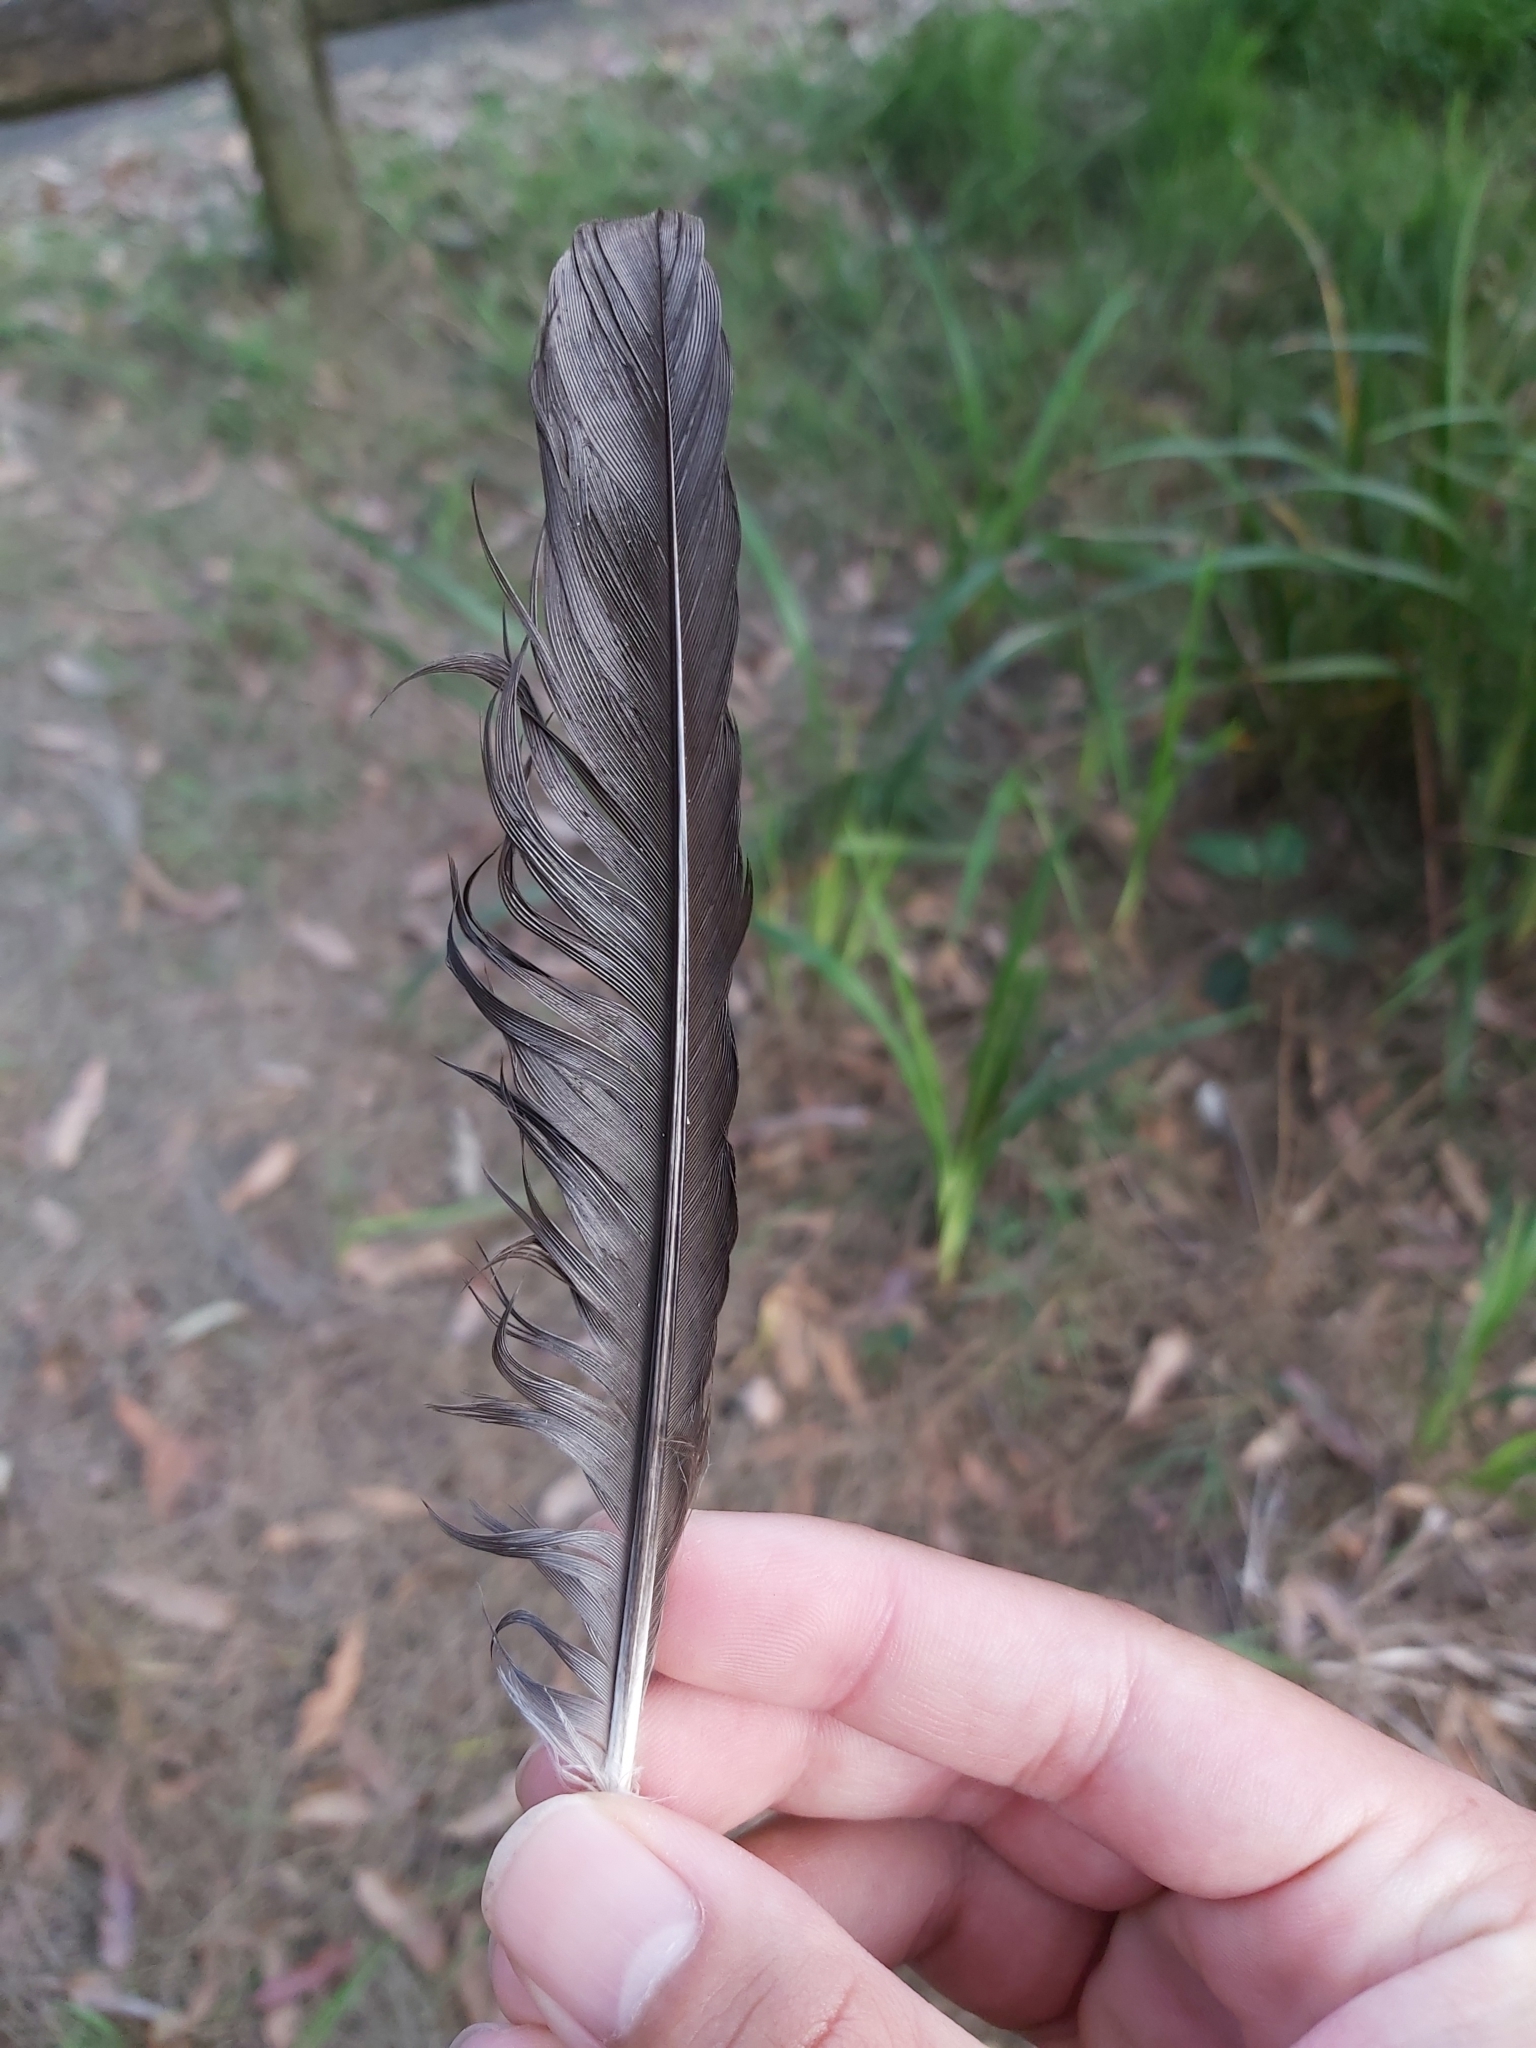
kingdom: Animalia
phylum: Chordata
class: Aves
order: Passeriformes
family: Cracticidae
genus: Gymnorhina
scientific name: Gymnorhina tibicen
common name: Australian magpie
